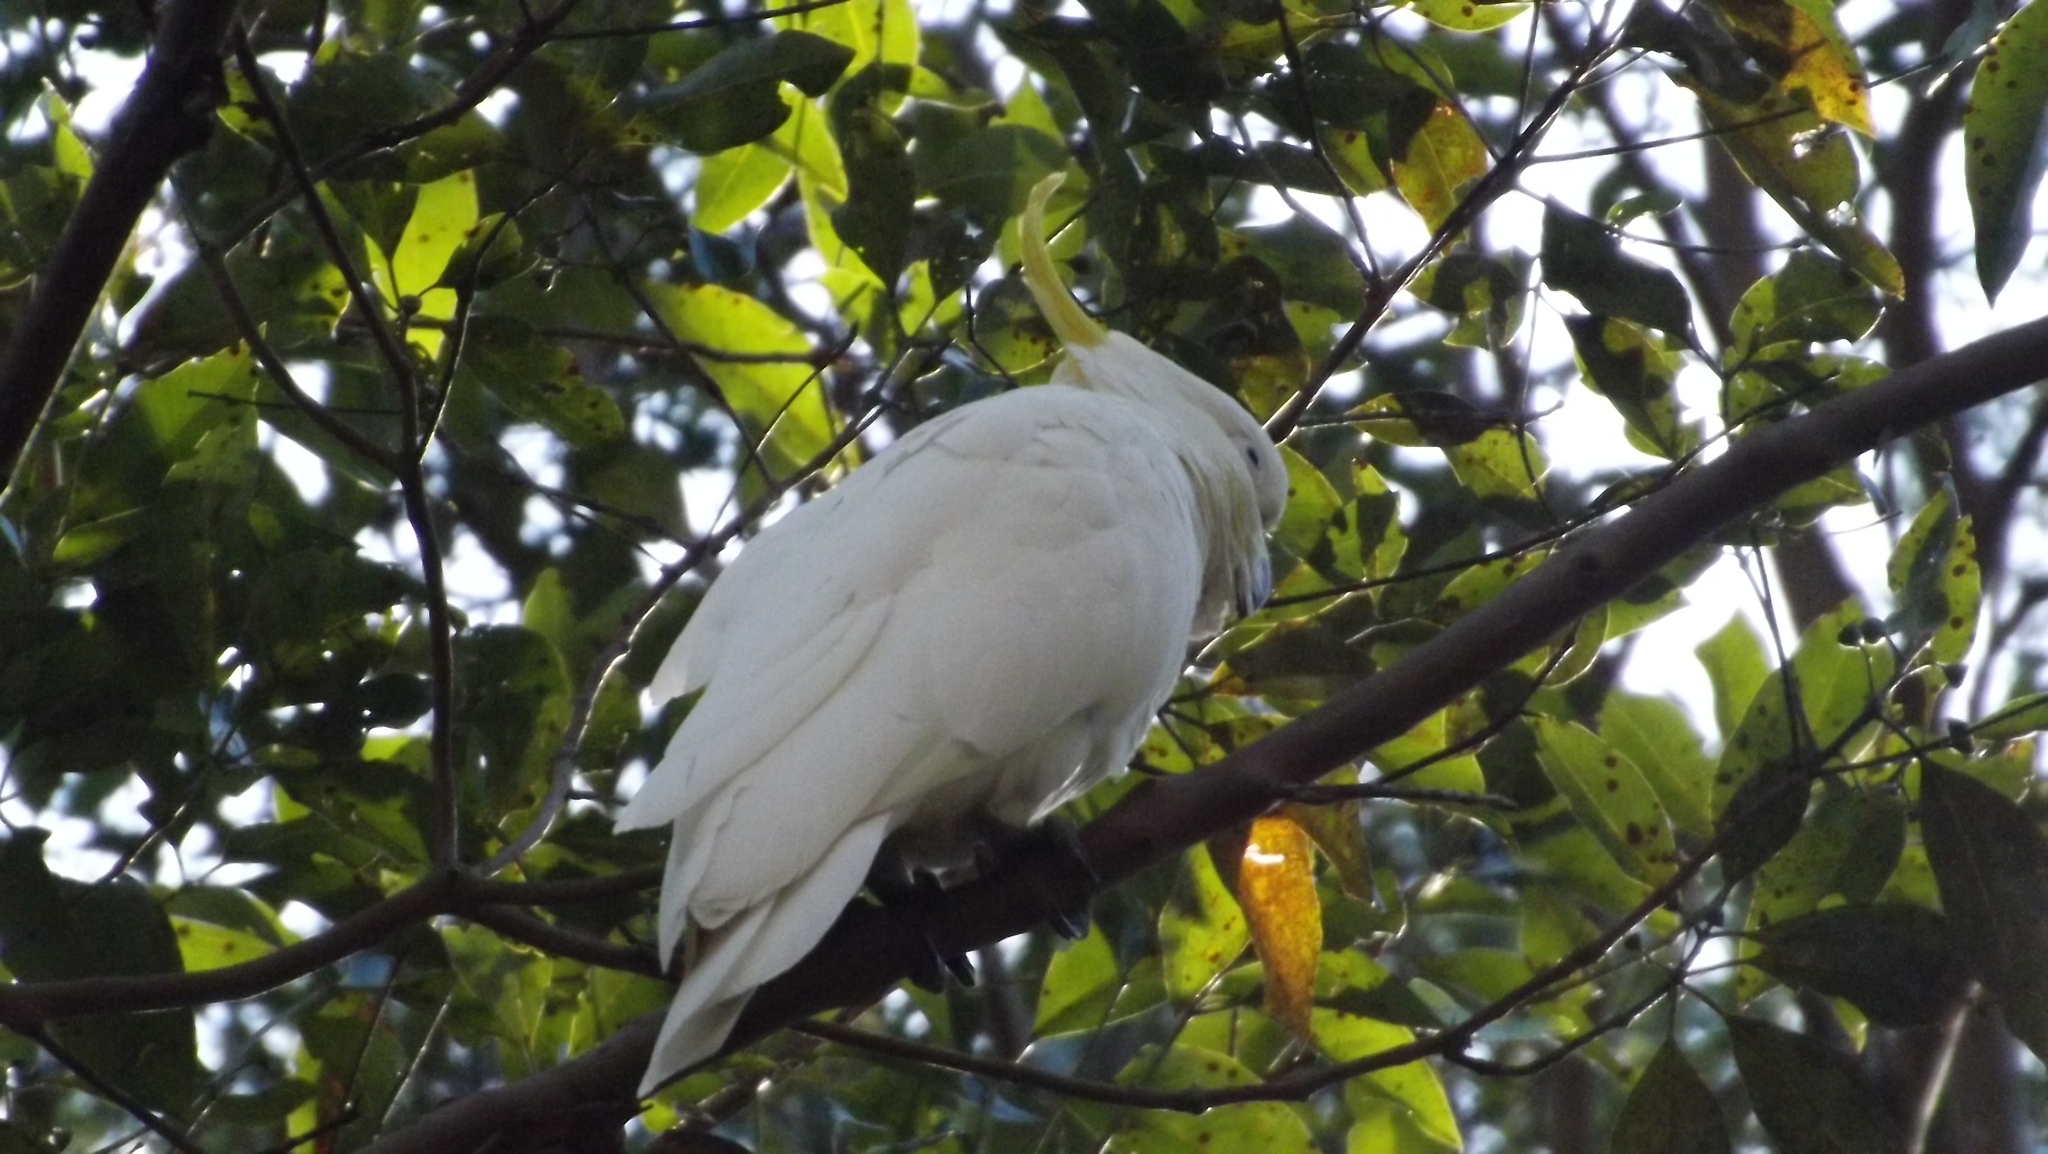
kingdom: Animalia
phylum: Chordata
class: Aves
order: Psittaciformes
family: Psittacidae
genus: Cacatua
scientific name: Cacatua galerita
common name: Sulphur-crested cockatoo
